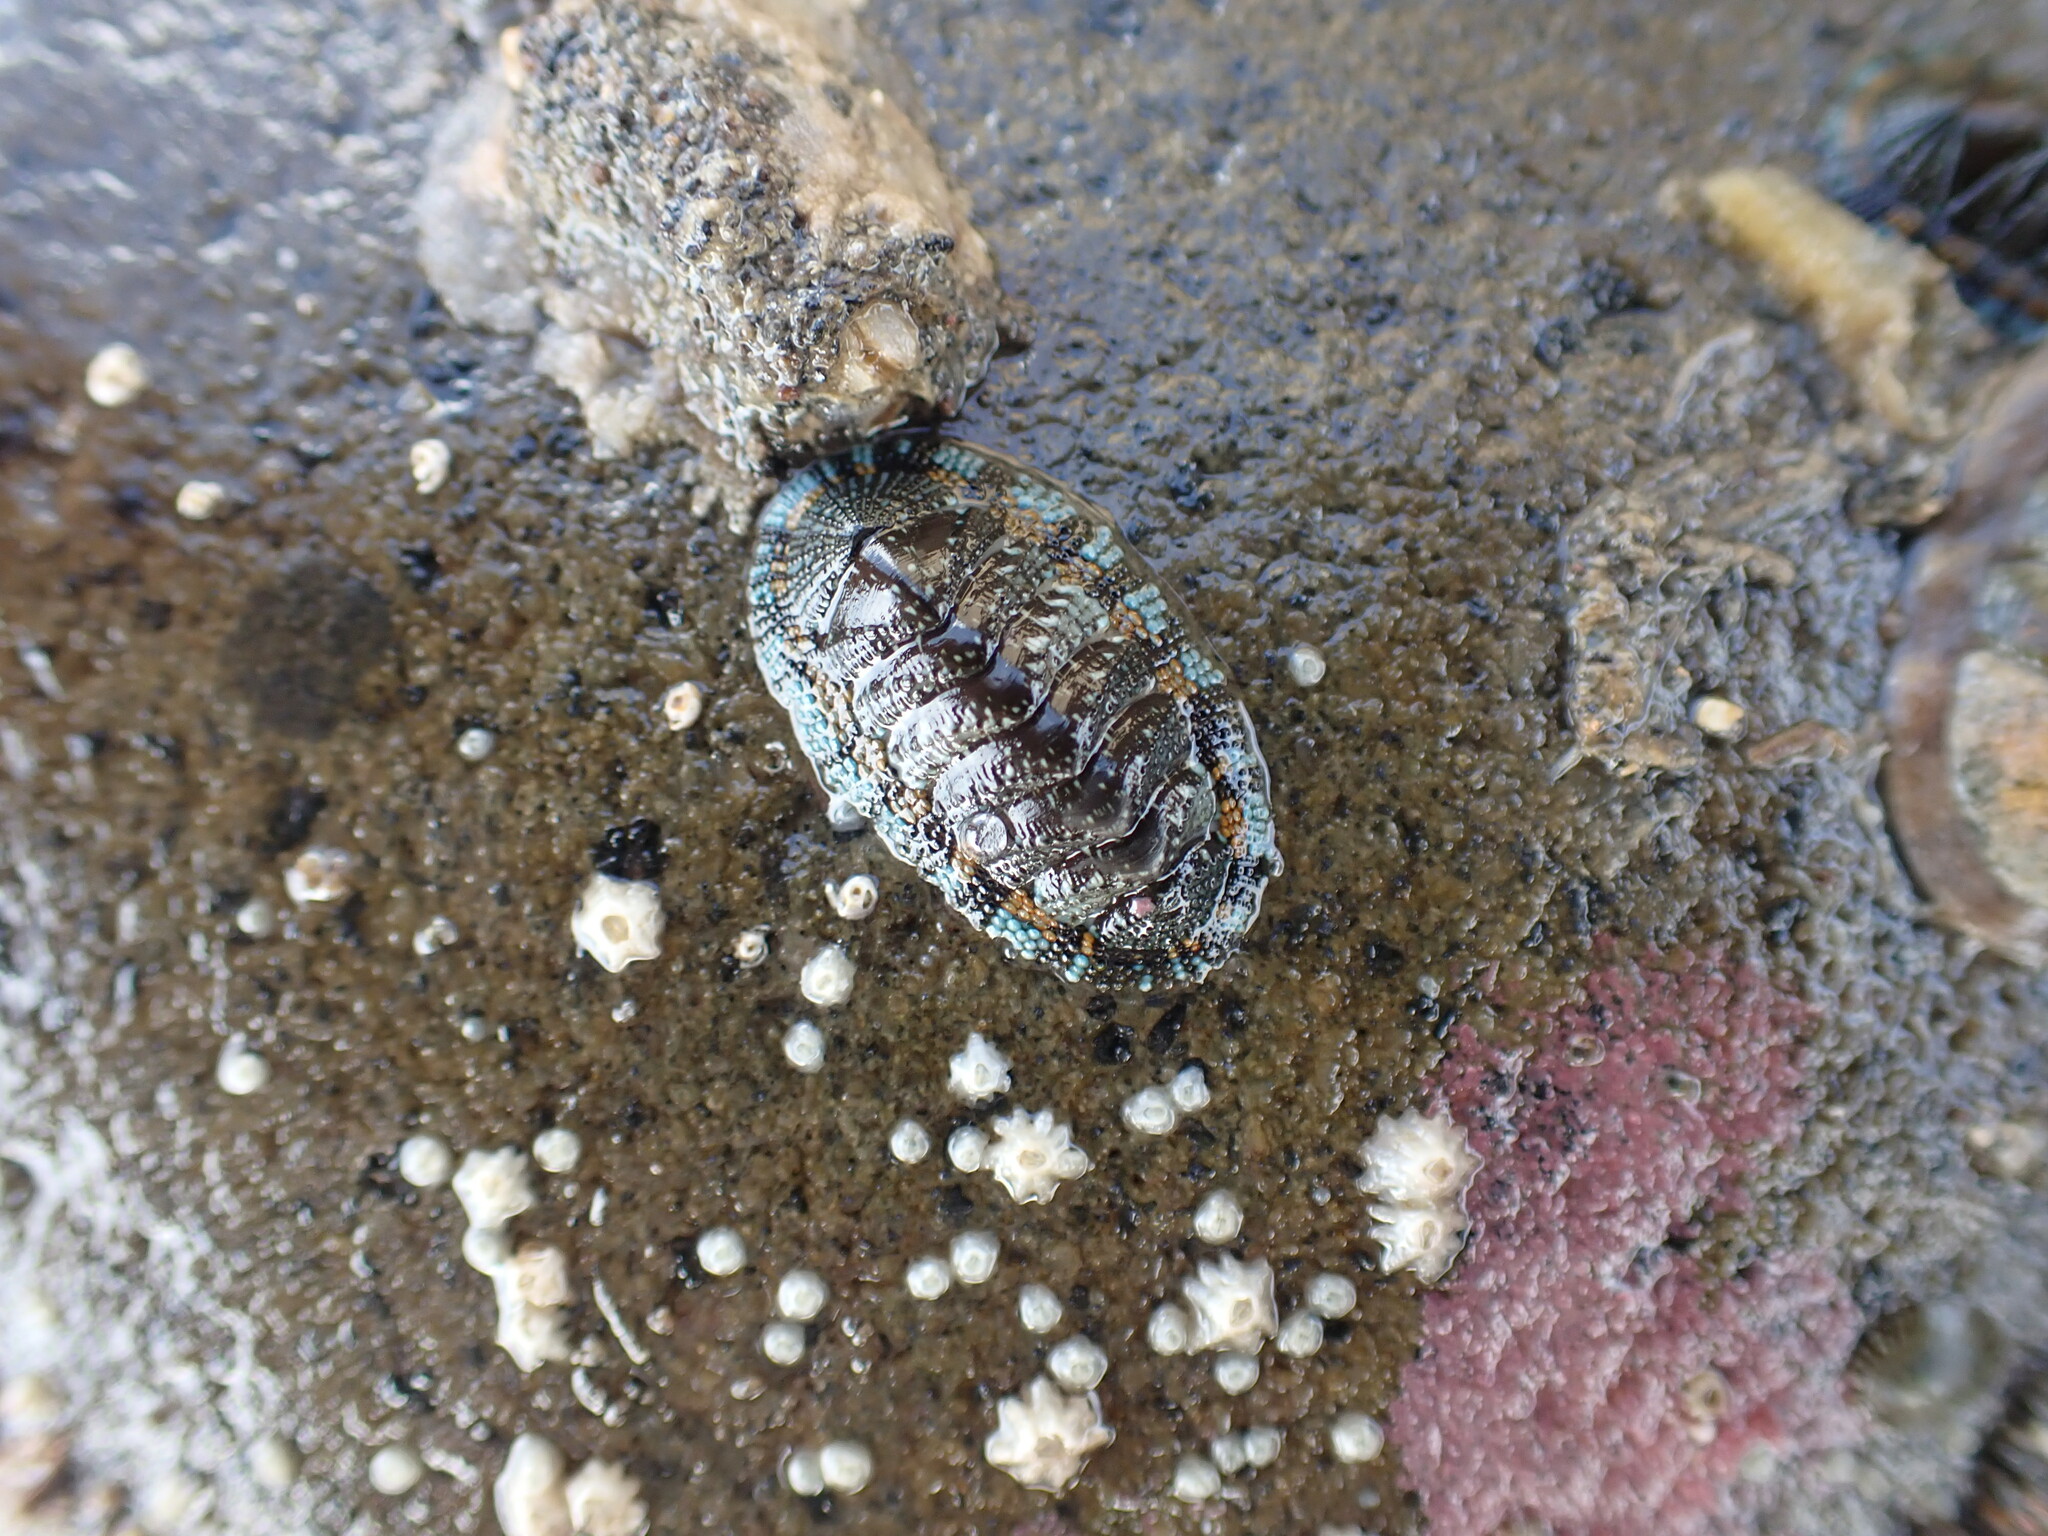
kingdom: Animalia
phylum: Mollusca
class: Polyplacophora
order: Chitonida
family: Chitonidae
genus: Sypharochiton
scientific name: Sypharochiton sinclairi
